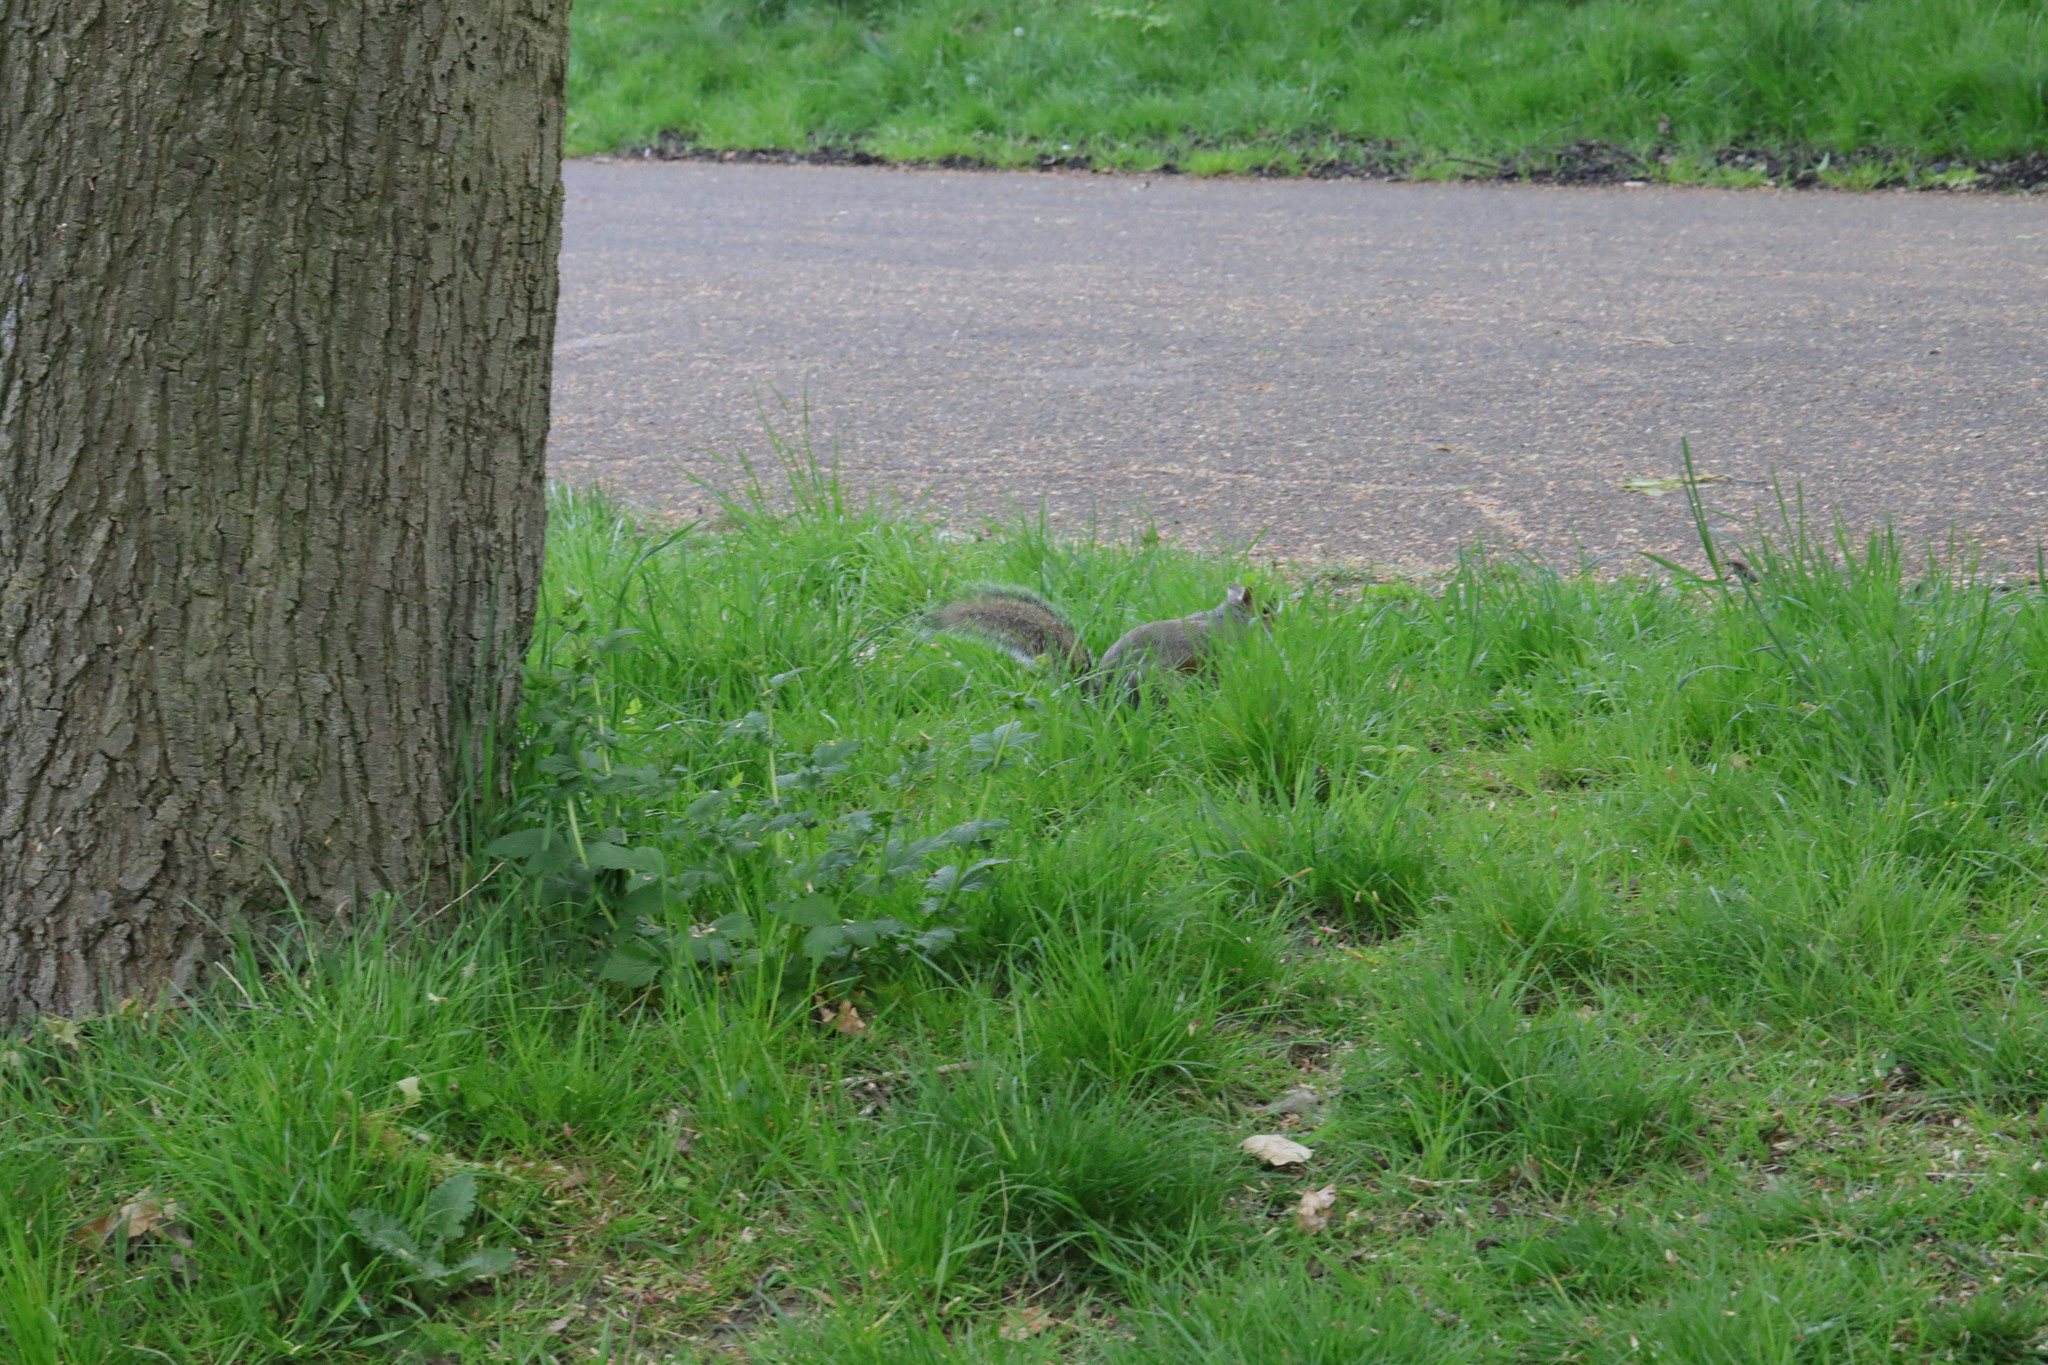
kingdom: Animalia
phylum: Chordata
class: Mammalia
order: Rodentia
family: Sciuridae
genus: Sciurus
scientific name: Sciurus carolinensis
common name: Eastern gray squirrel
